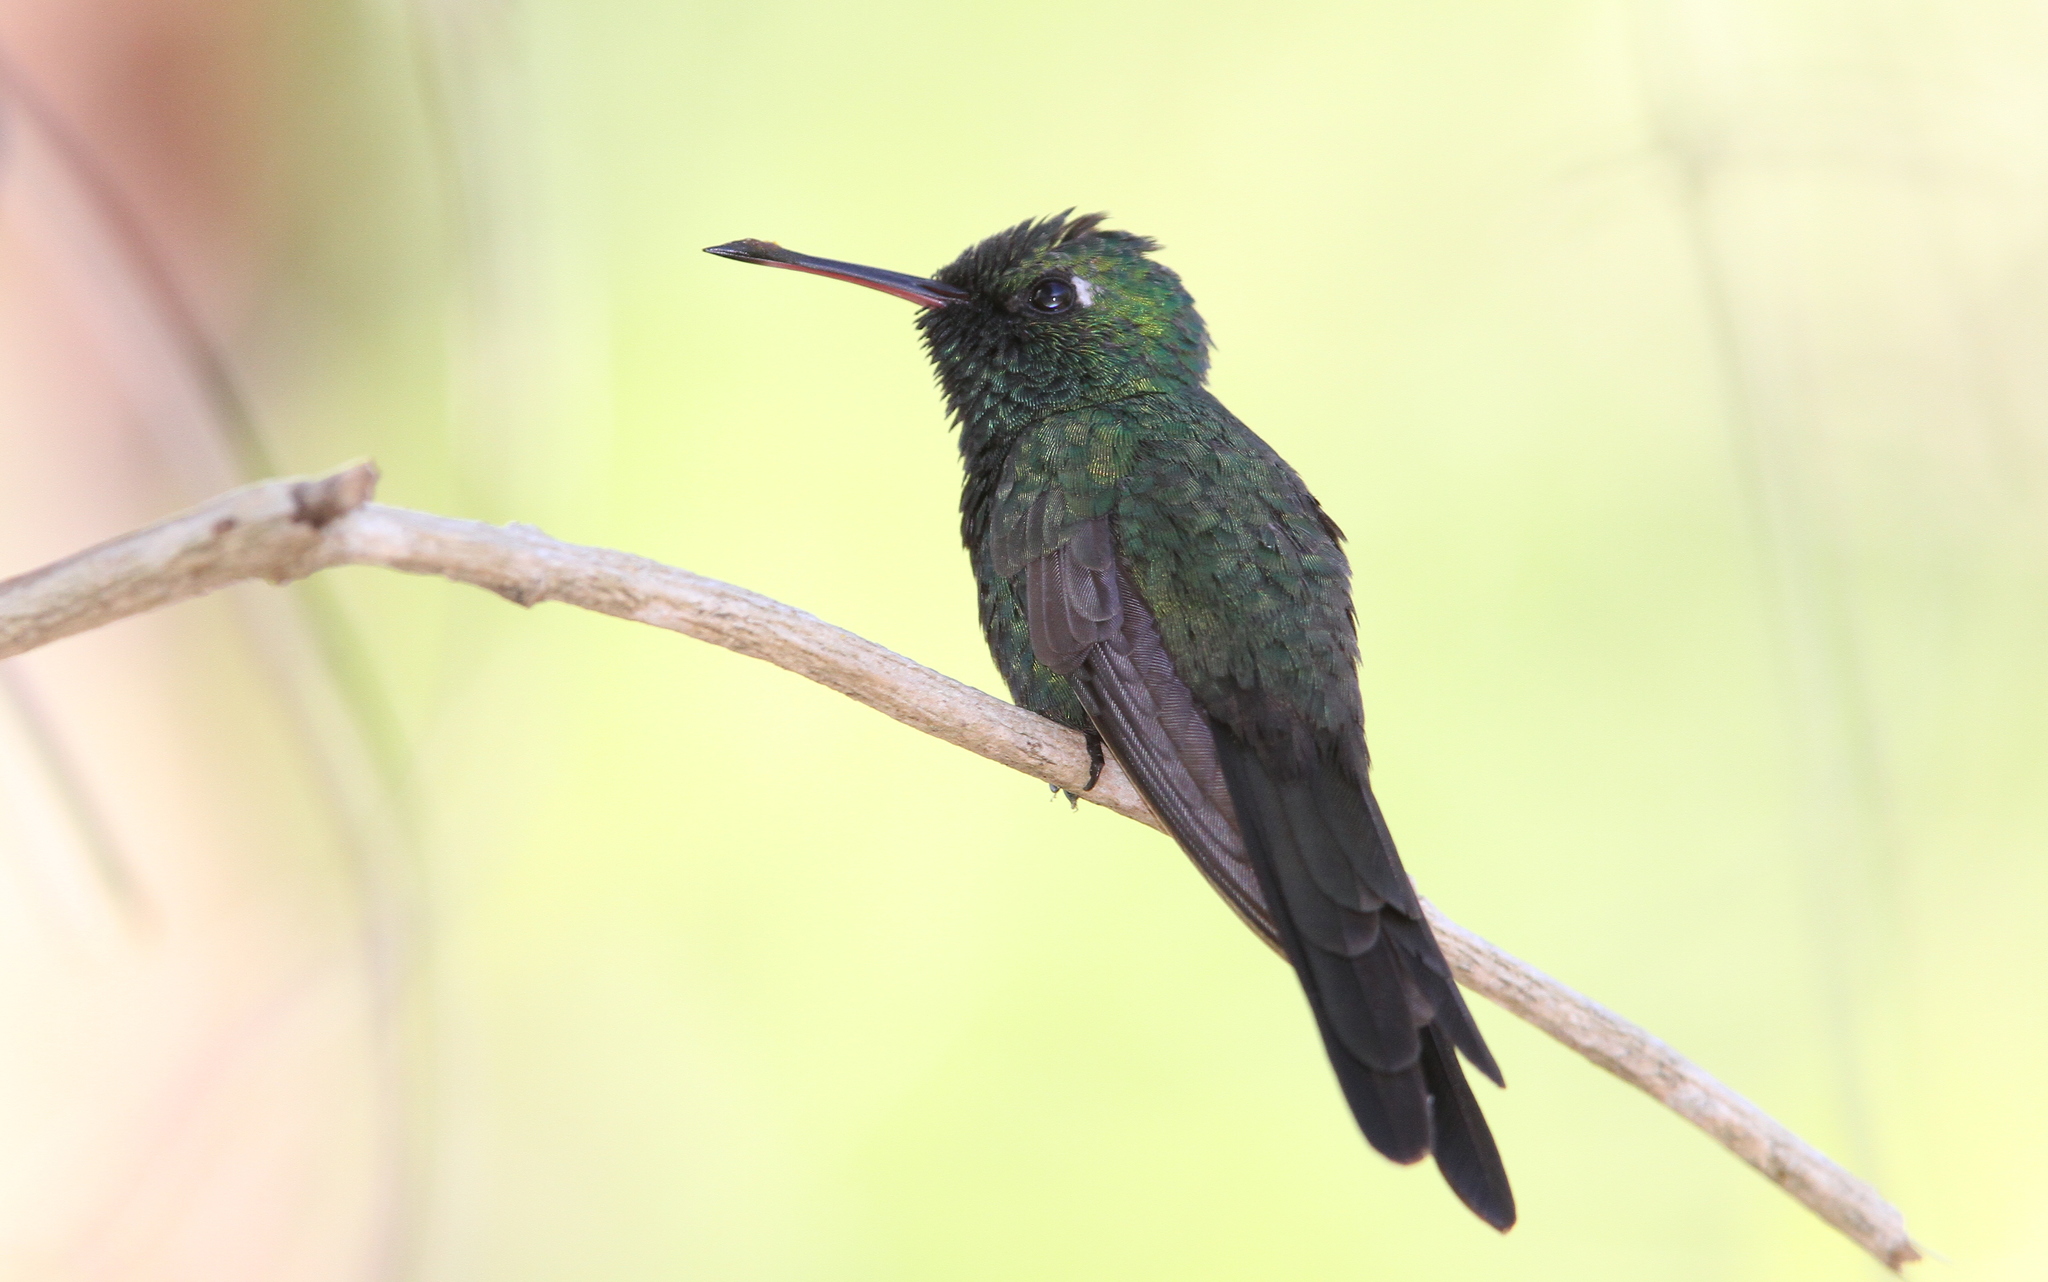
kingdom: Animalia
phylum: Chordata
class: Aves
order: Apodiformes
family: Trochilidae
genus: Riccordia
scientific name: Riccordia ricordii
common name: Cuban emerald
